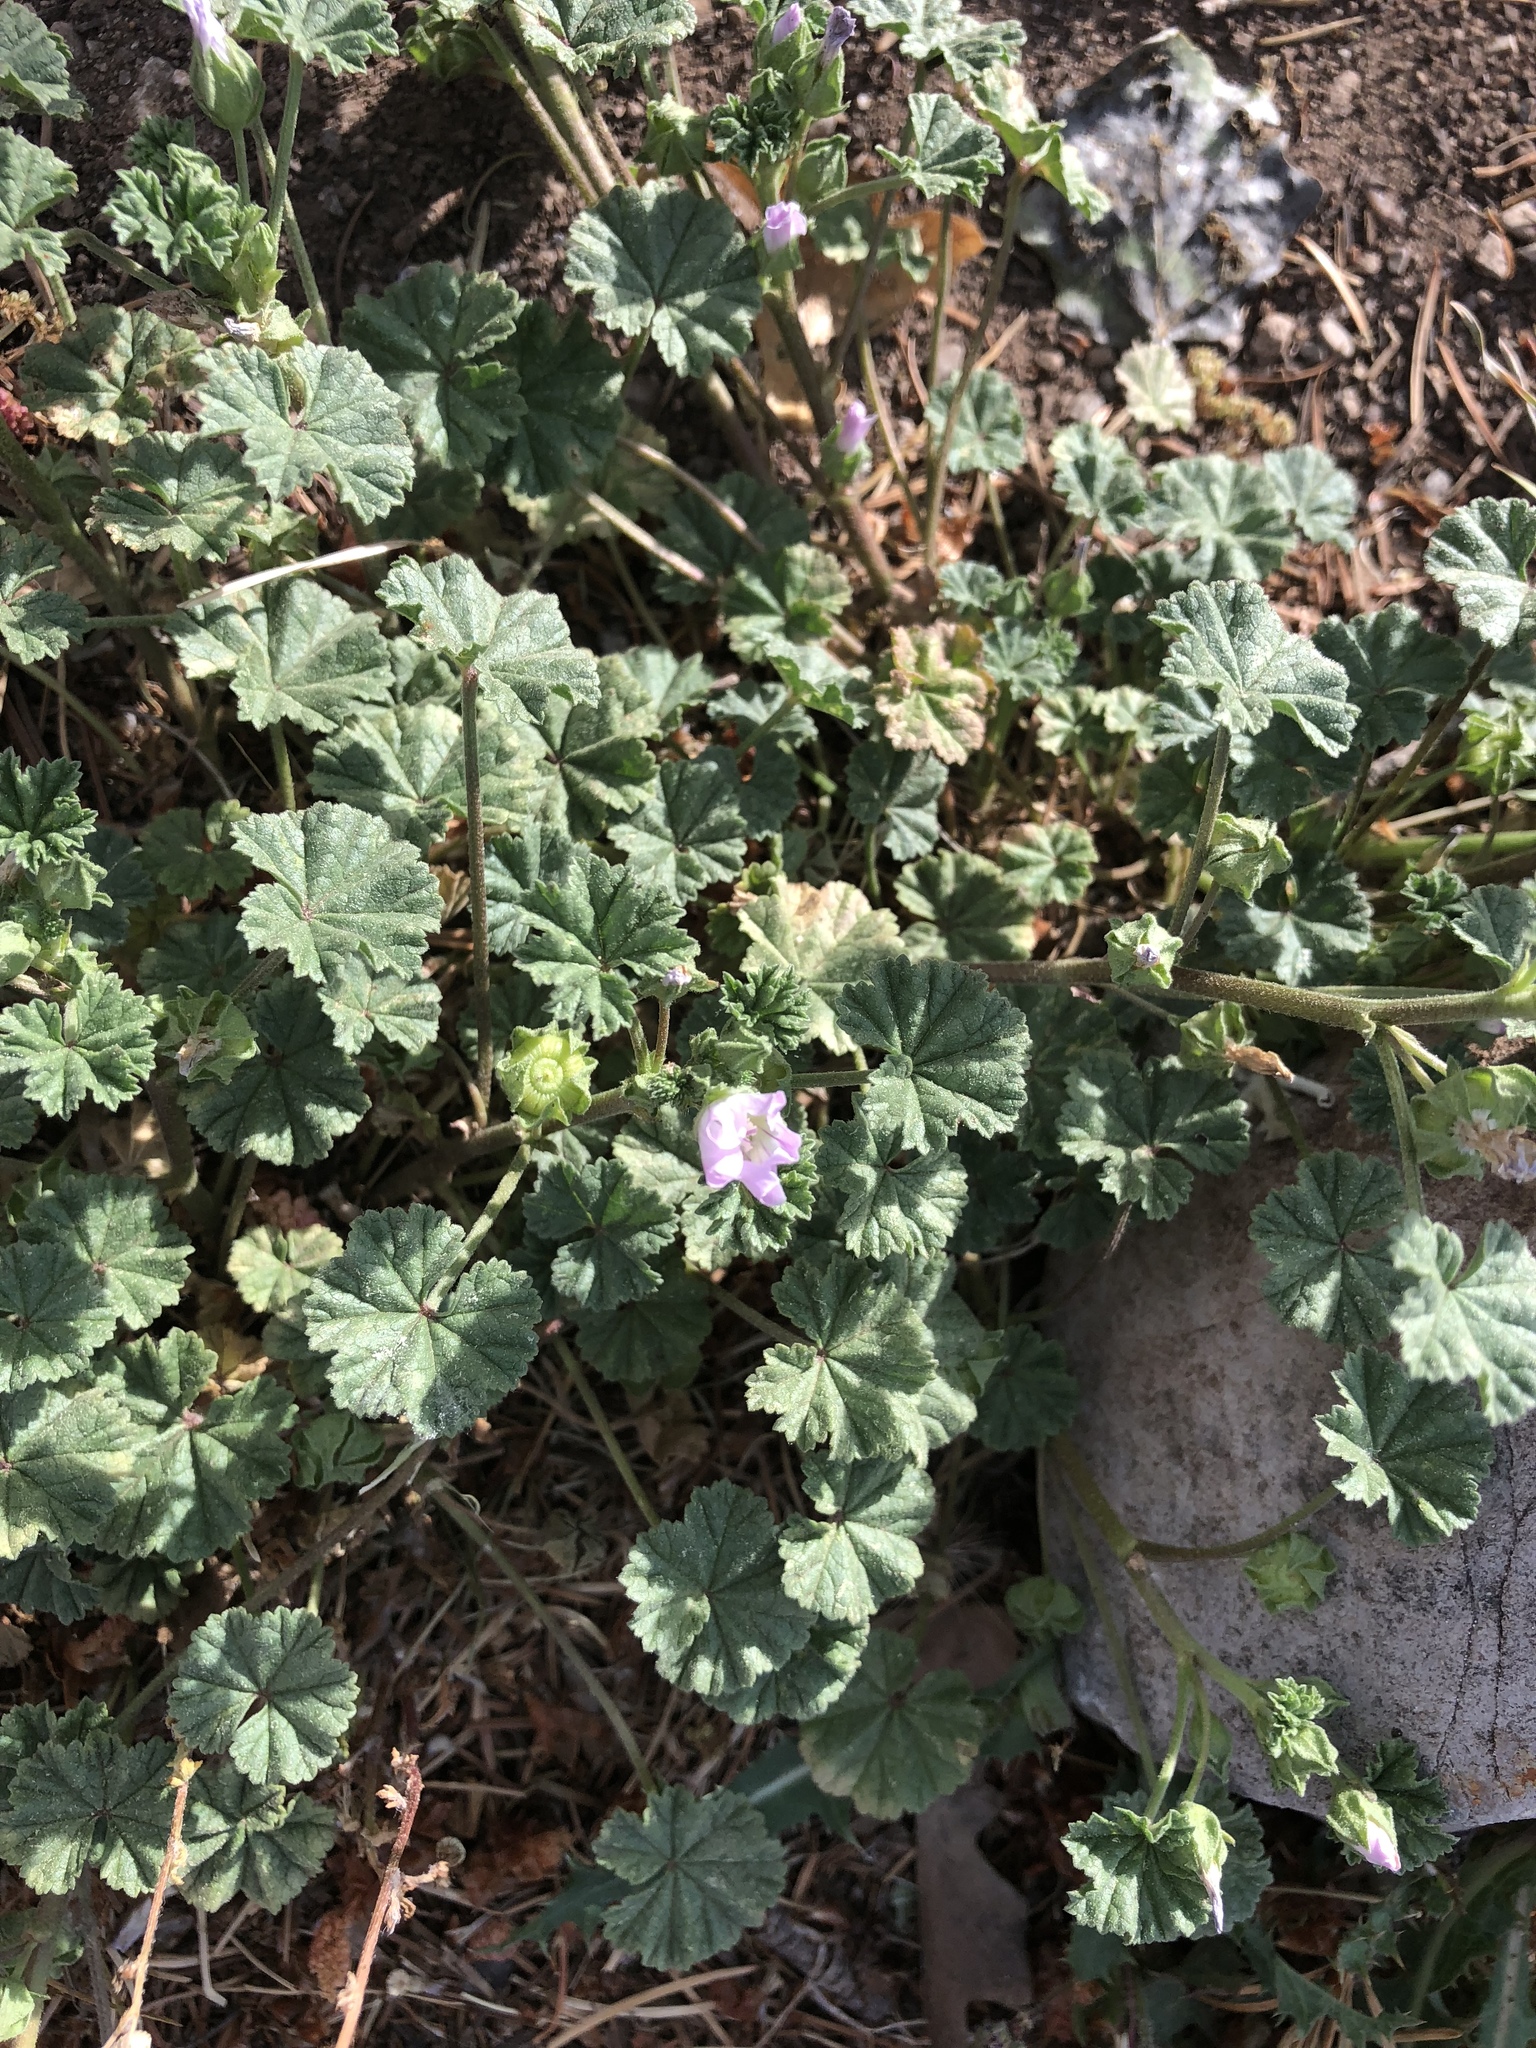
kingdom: Plantae
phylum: Tracheophyta
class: Magnoliopsida
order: Malvales
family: Malvaceae
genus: Malva
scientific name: Malva neglecta
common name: Common mallow
